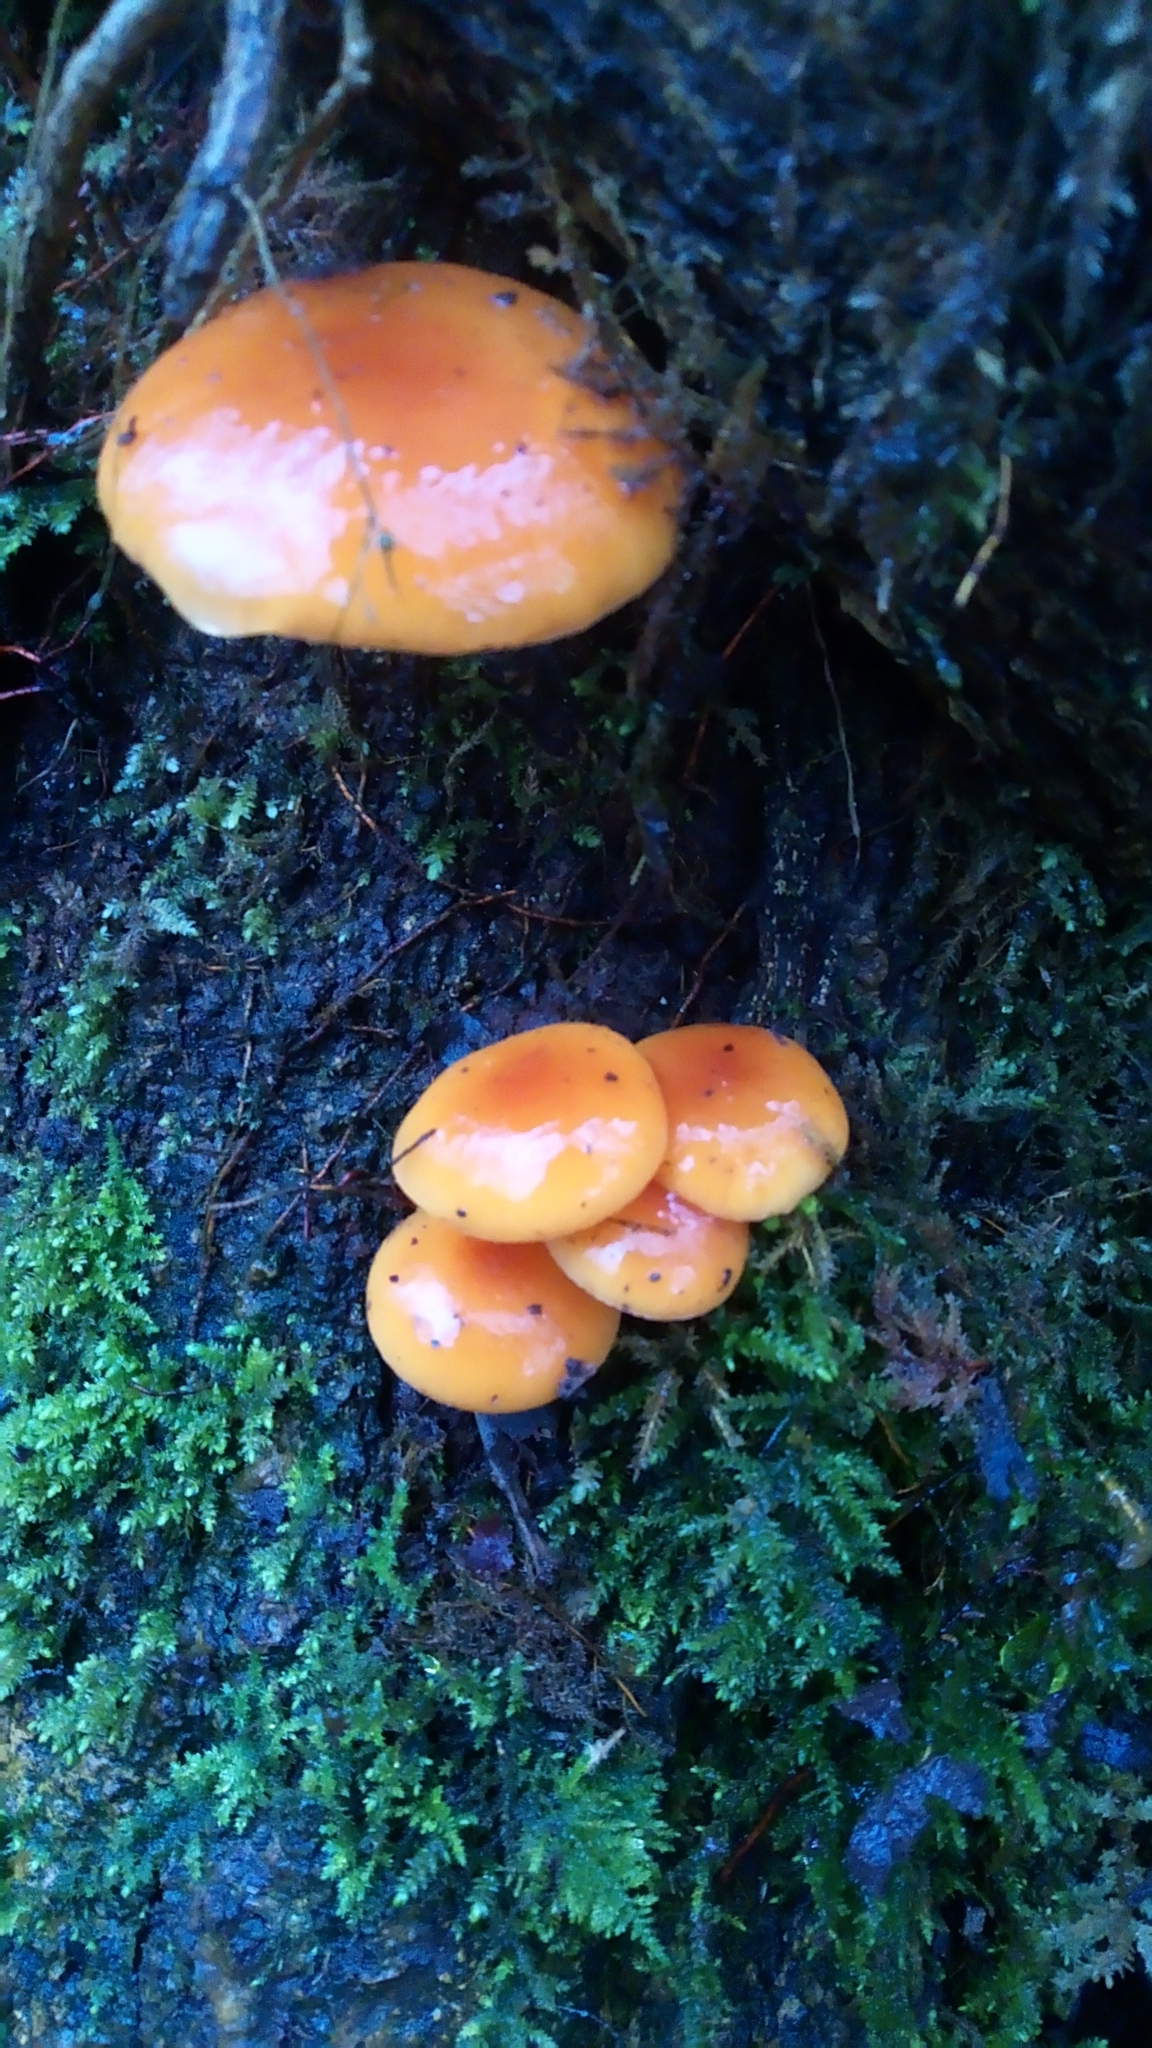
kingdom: Fungi
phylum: Basidiomycota
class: Agaricomycetes
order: Agaricales
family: Physalacriaceae
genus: Flammulina
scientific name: Flammulina
